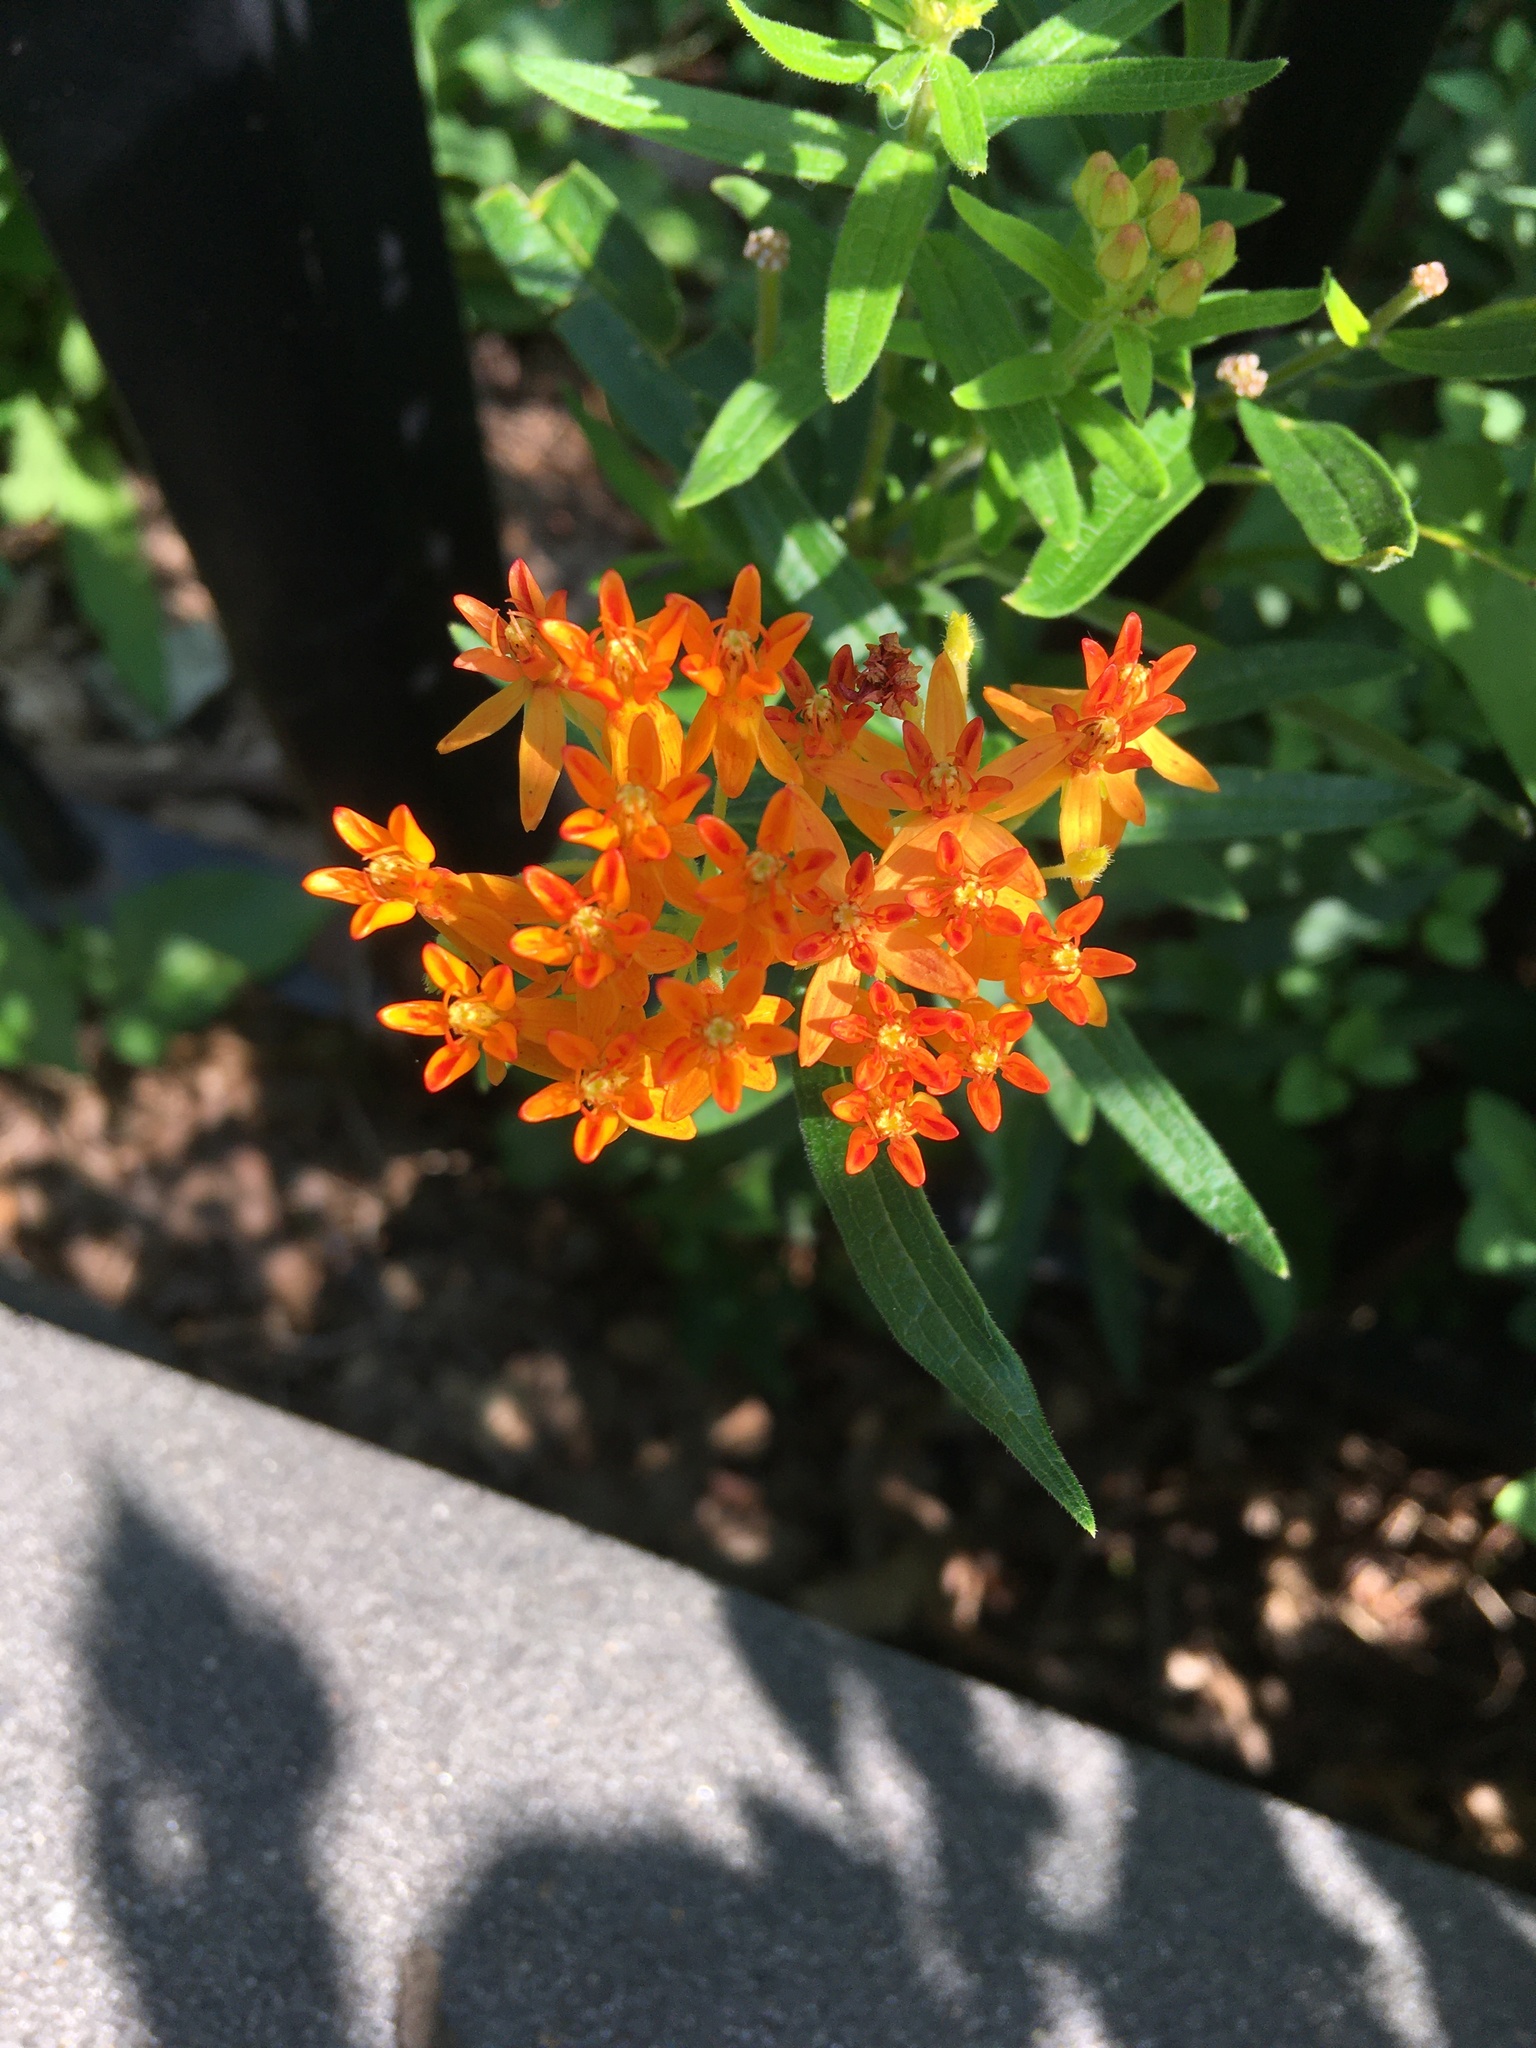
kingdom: Plantae
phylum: Tracheophyta
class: Magnoliopsida
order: Gentianales
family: Apocynaceae
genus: Asclepias
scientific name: Asclepias tuberosa
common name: Butterfly milkweed
